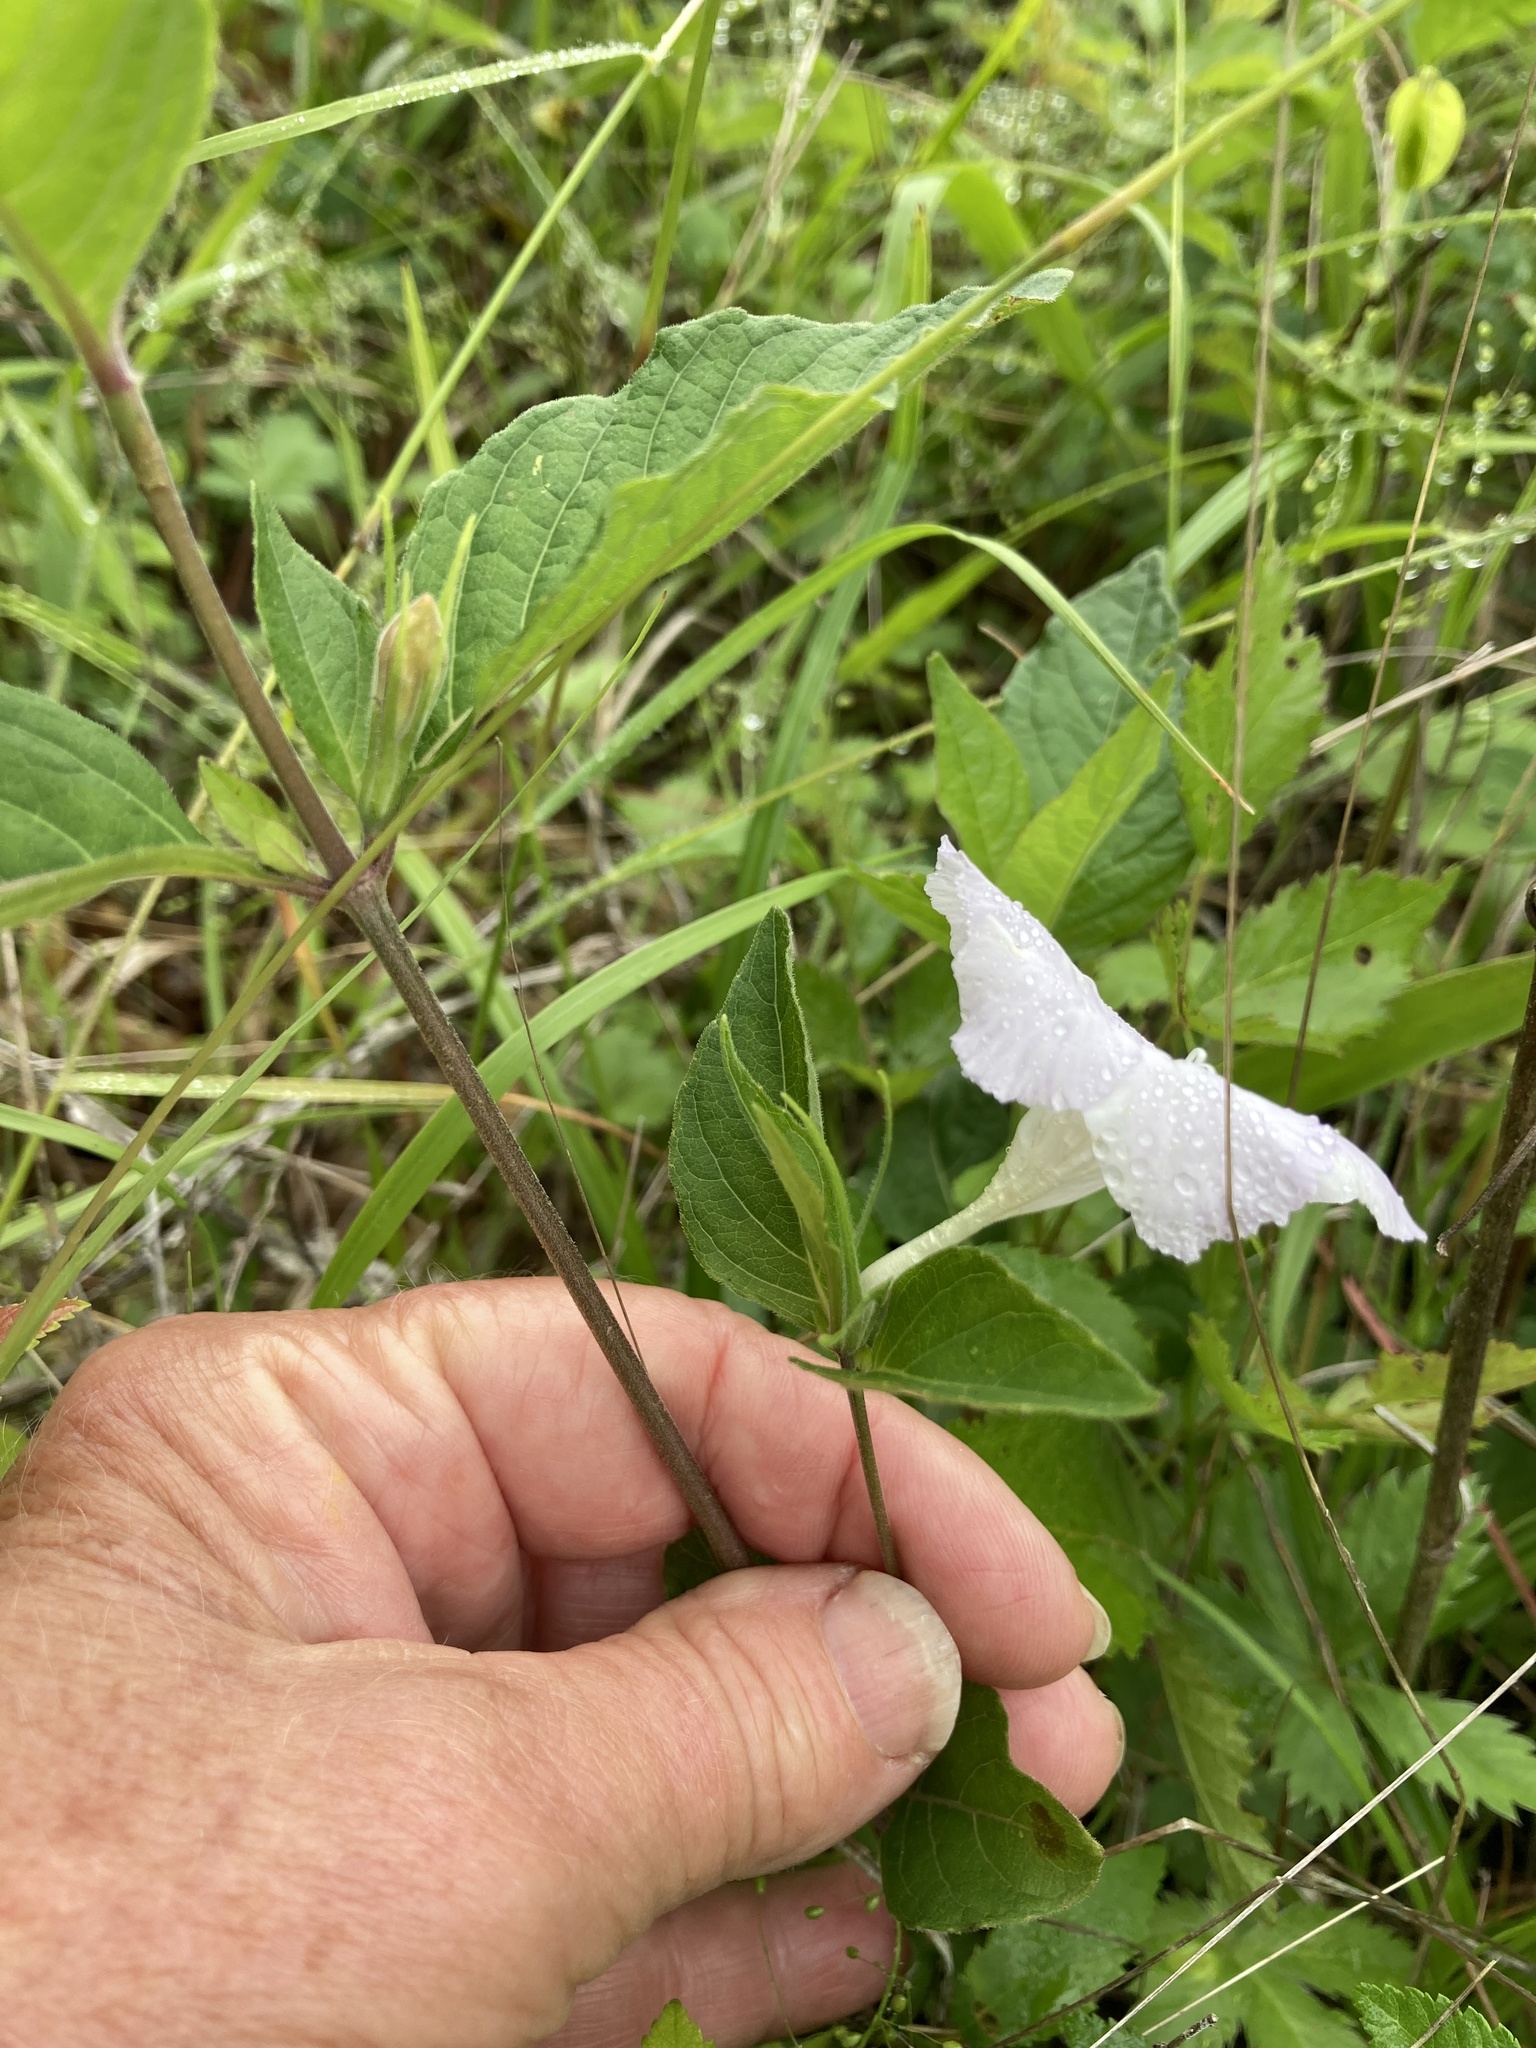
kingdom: Plantae
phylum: Tracheophyta
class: Magnoliopsida
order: Lamiales
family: Acanthaceae
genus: Ruellia
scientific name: Ruellia purshiana
